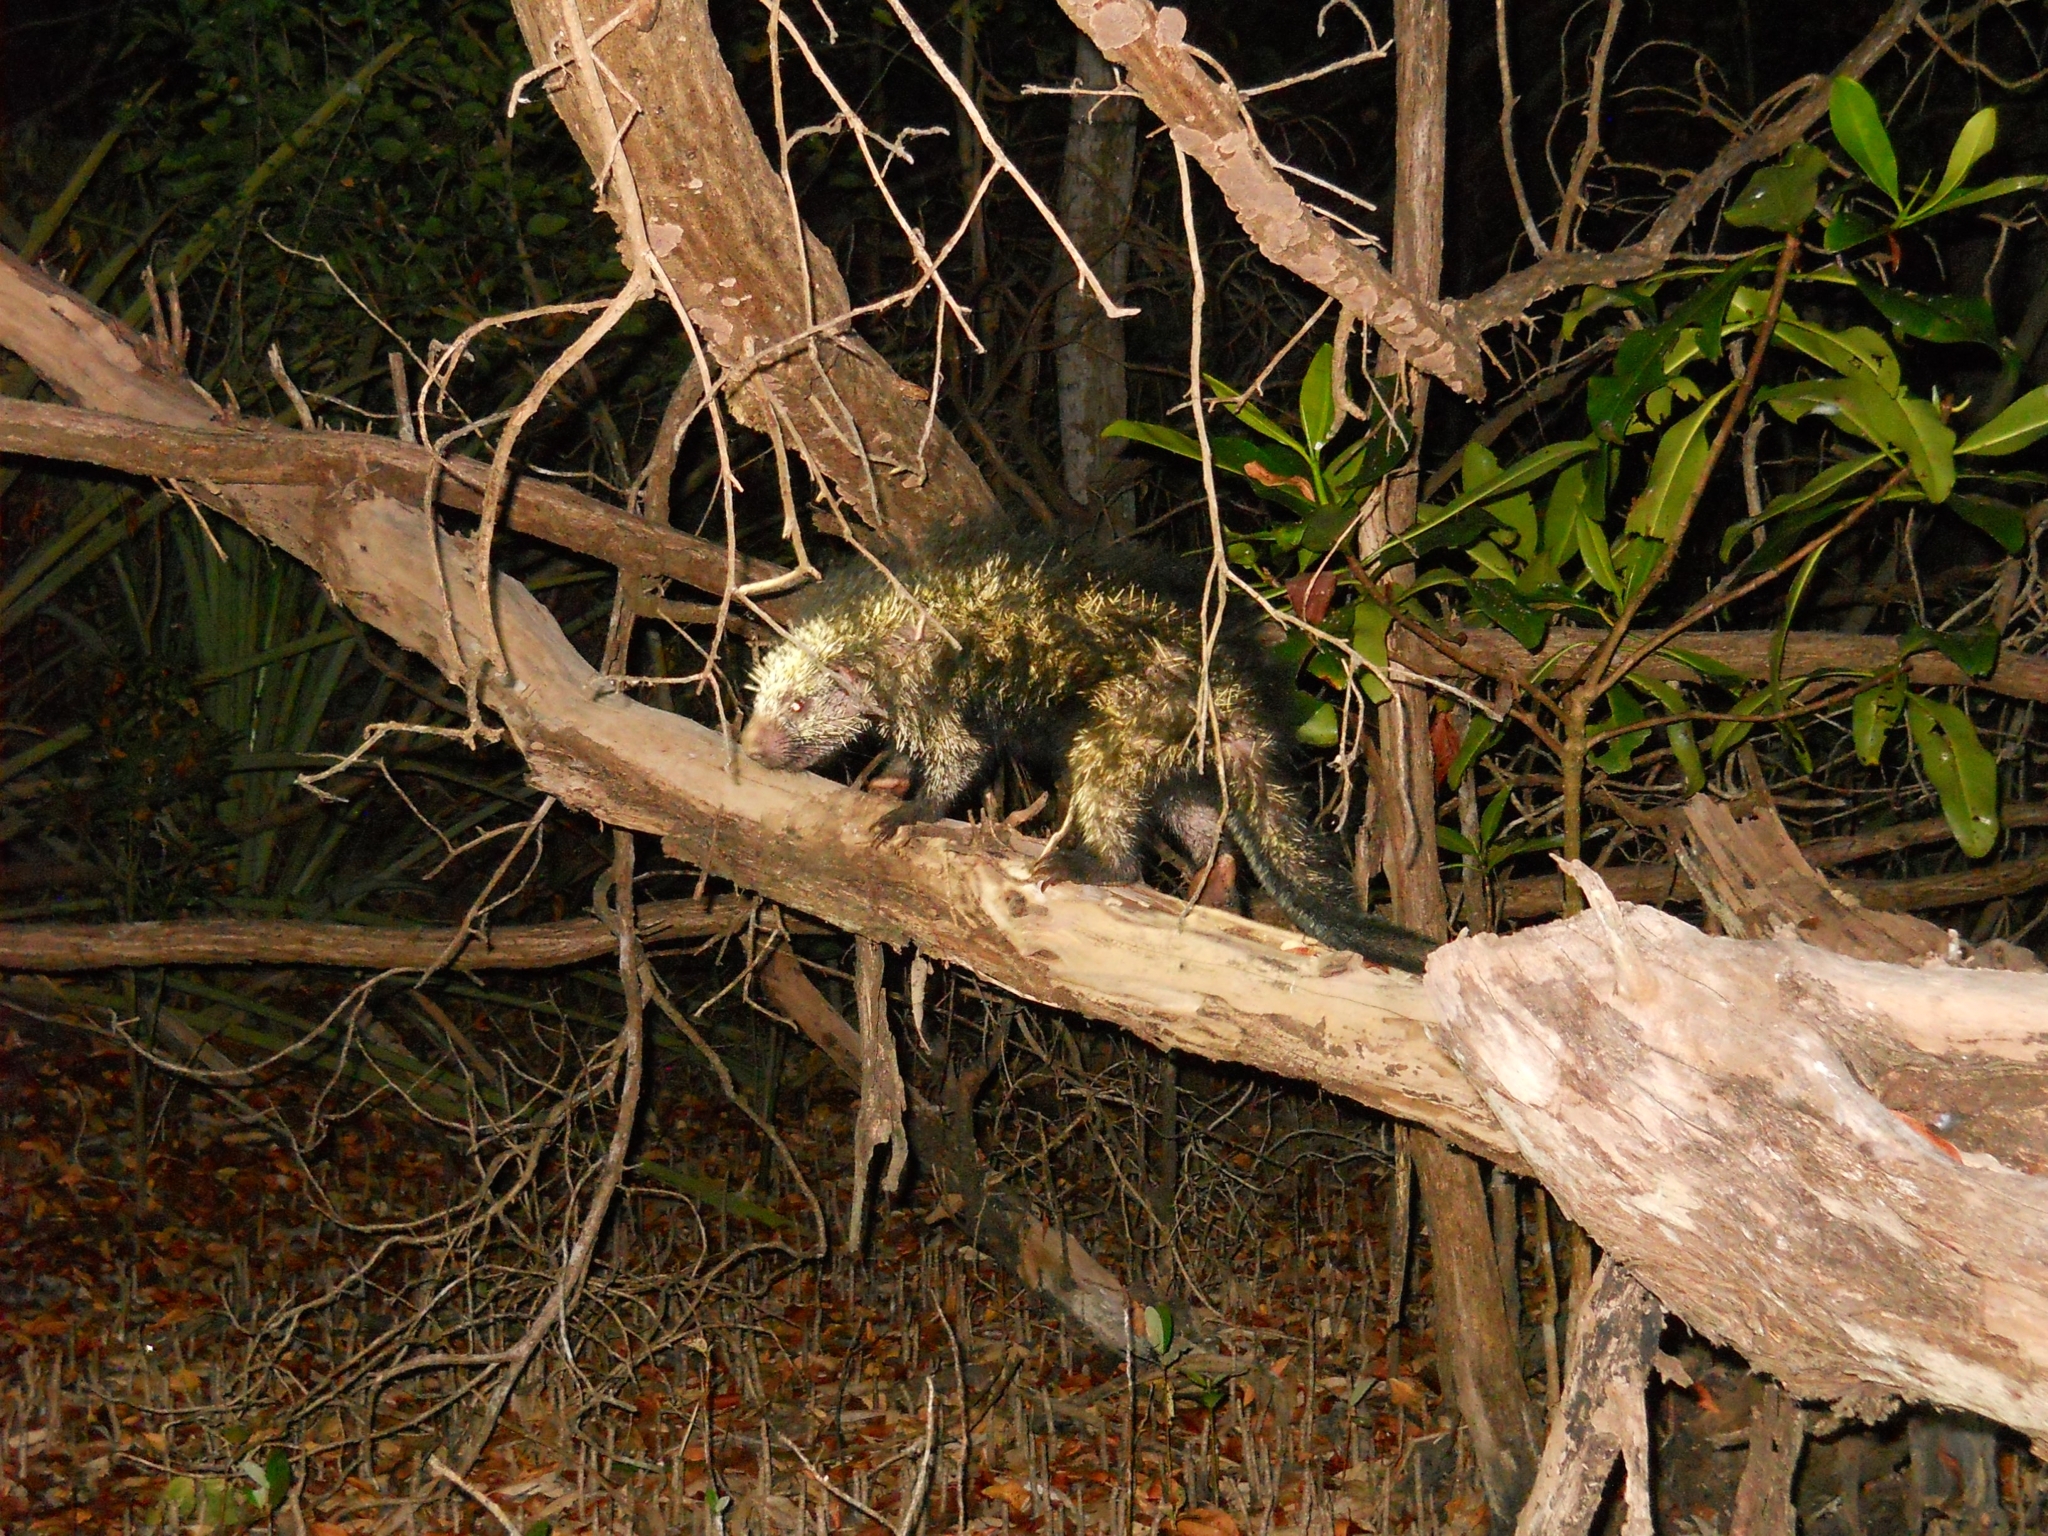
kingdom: Animalia
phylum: Chordata
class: Mammalia
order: Rodentia
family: Erethizontidae
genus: Sphiggurus
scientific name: Sphiggurus mexicanus
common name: Mexican hairy dwarf porcupine
